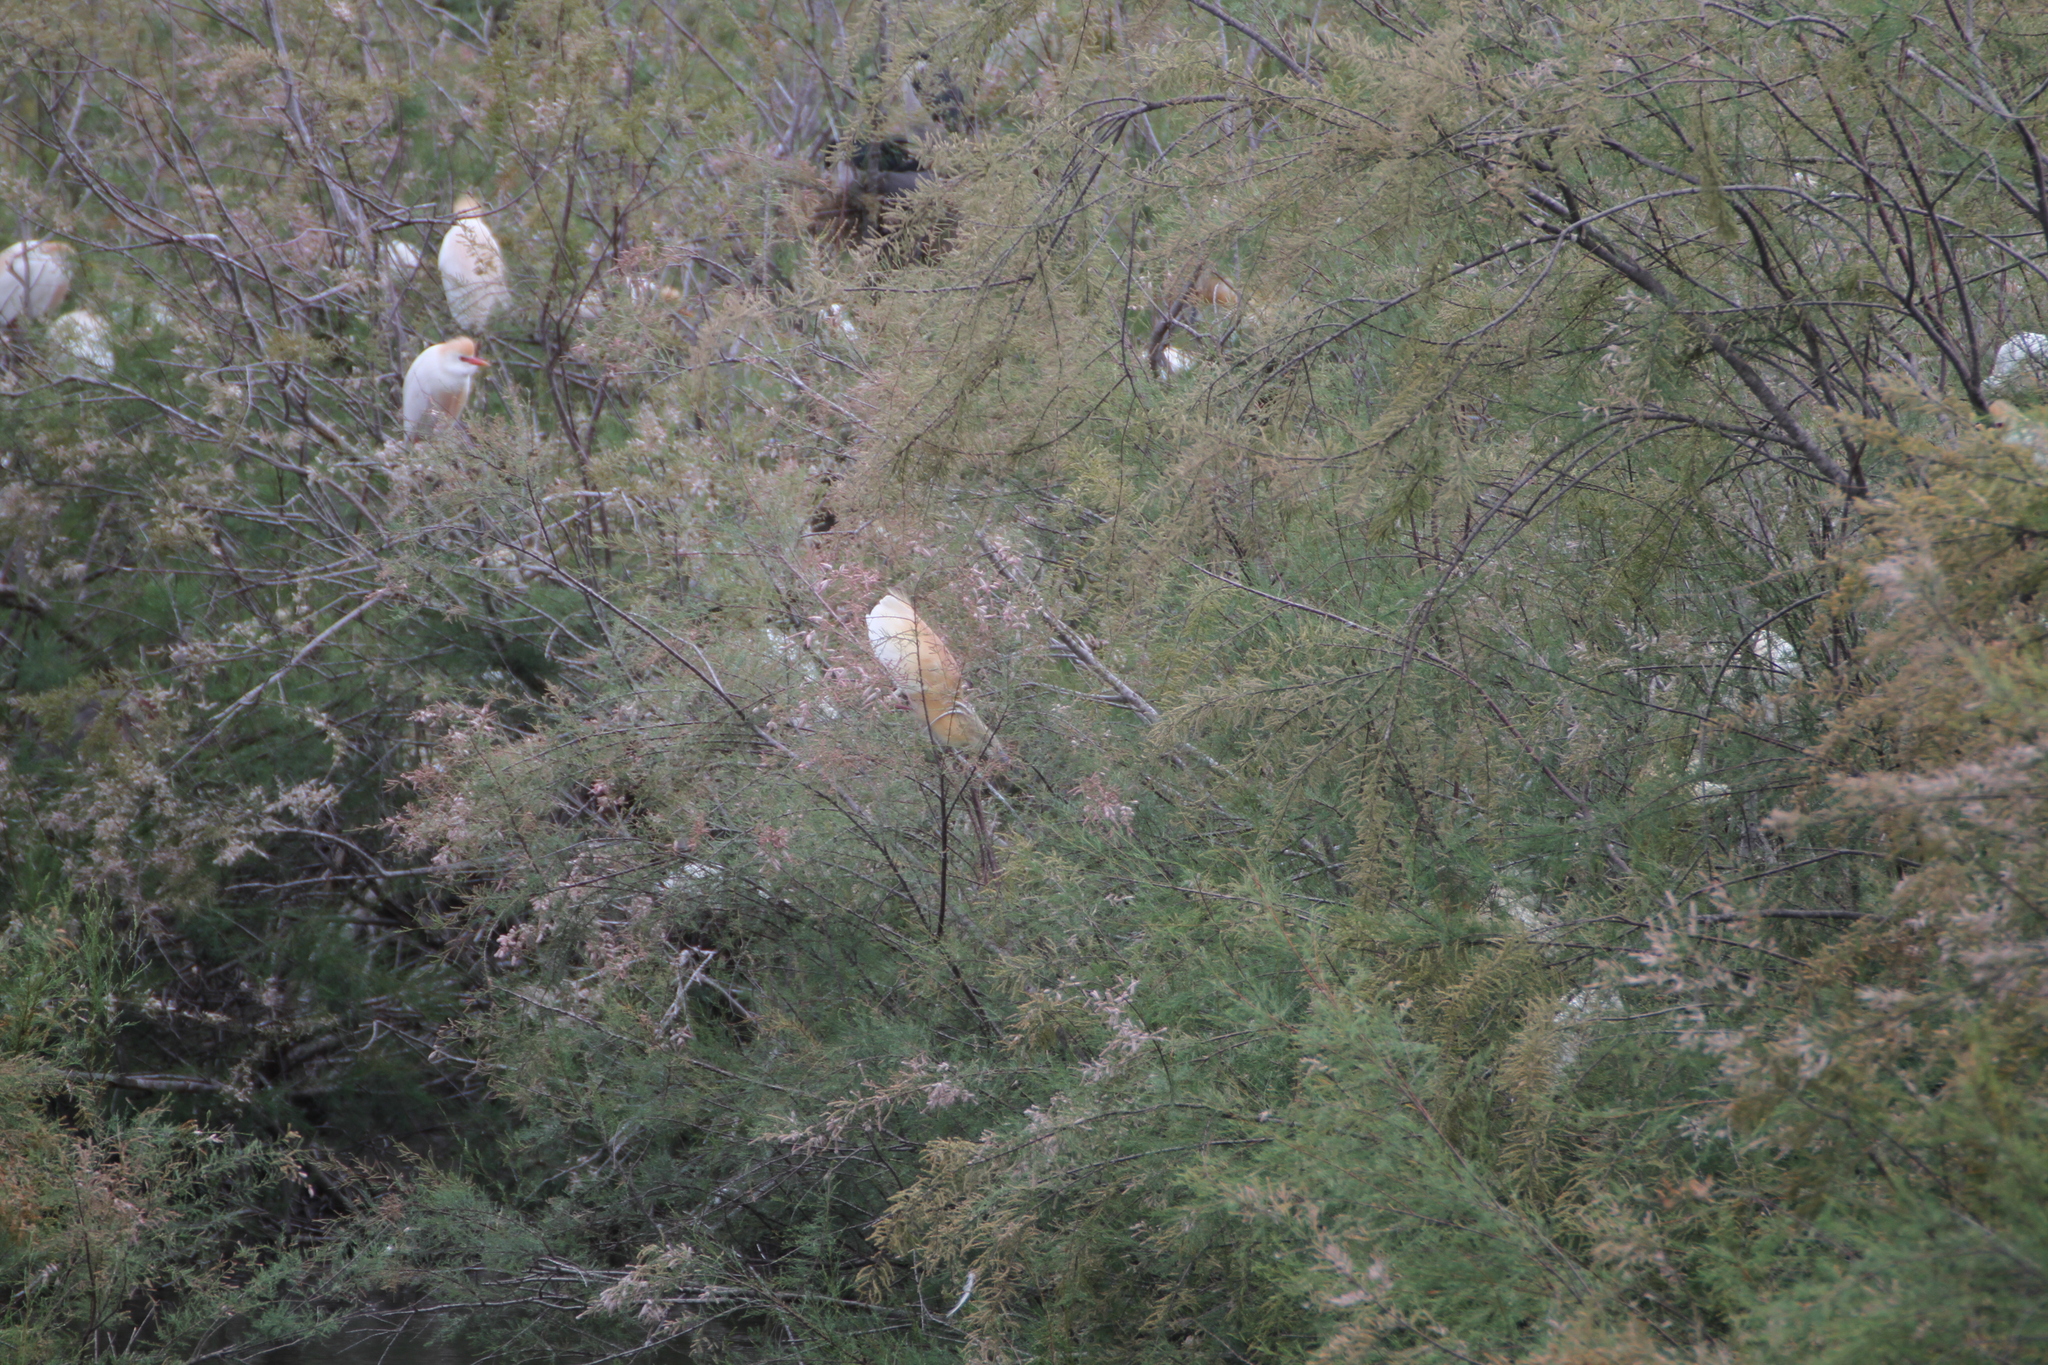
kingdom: Animalia
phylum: Chordata
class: Aves
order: Pelecaniformes
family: Ardeidae
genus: Ardeola
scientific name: Ardeola ralloides
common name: Squacco heron
